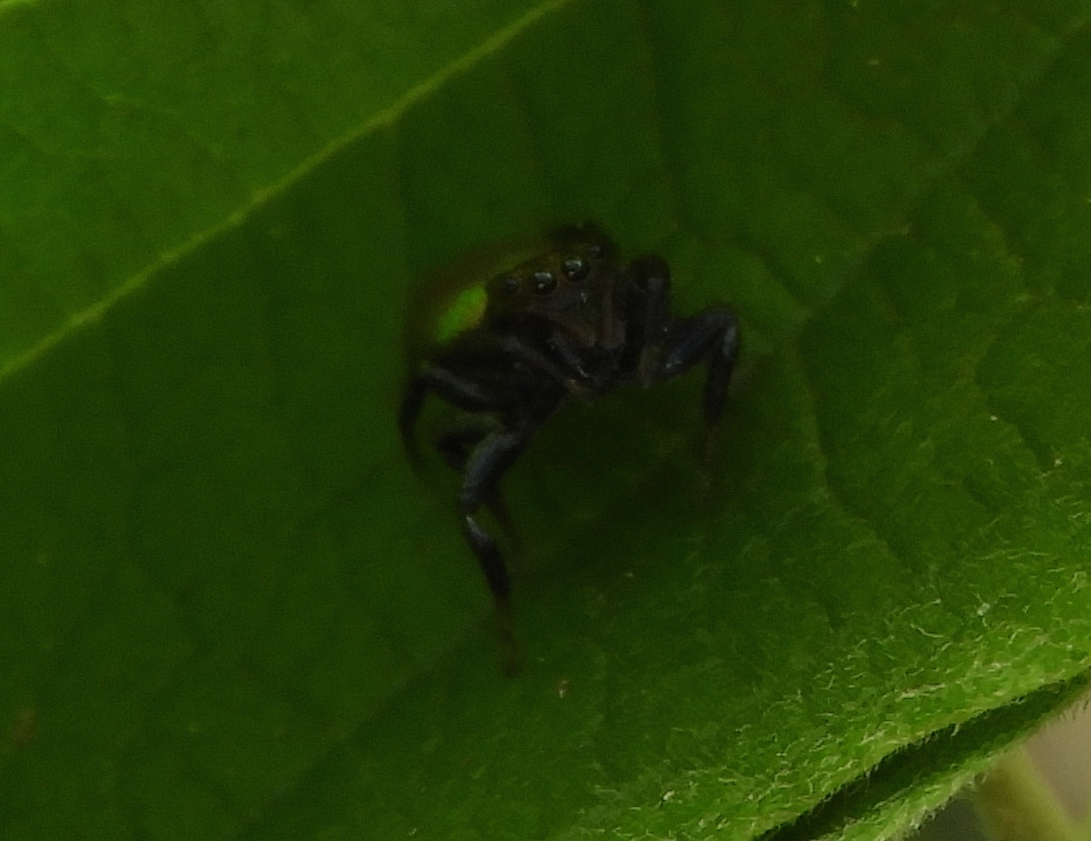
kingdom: Animalia
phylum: Arthropoda
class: Arachnida
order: Araneae
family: Salticidae
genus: Sassacus
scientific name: Sassacus
